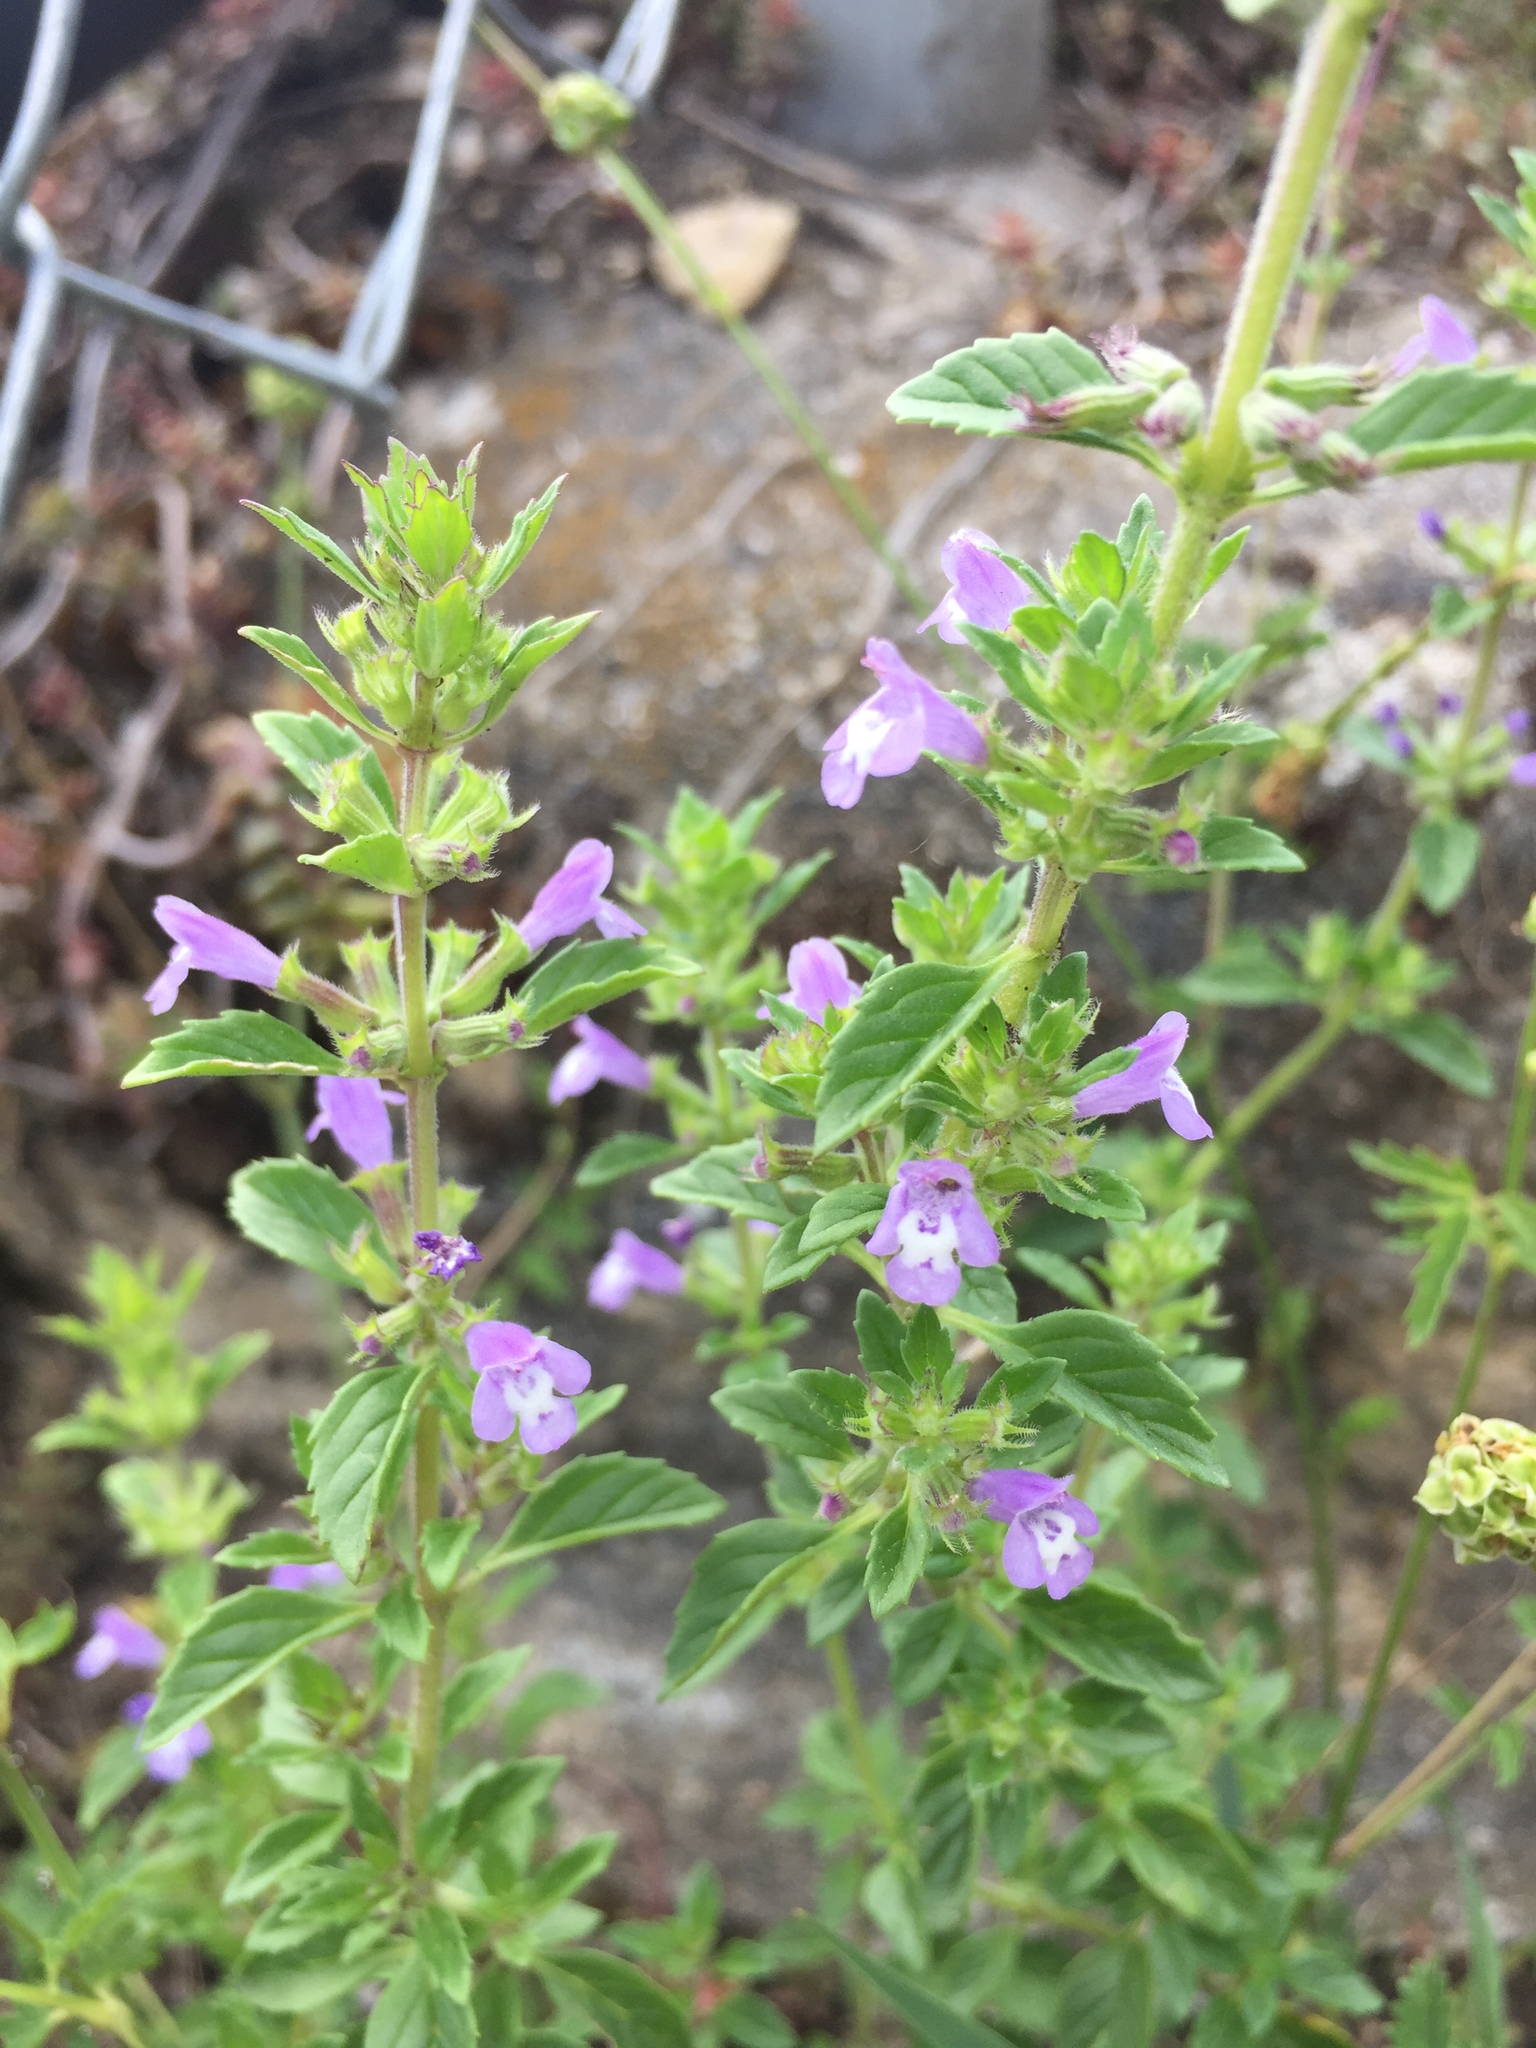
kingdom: Plantae
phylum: Tracheophyta
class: Magnoliopsida
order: Lamiales
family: Lamiaceae
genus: Clinopodium
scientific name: Clinopodium acinos
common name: Basil thyme
